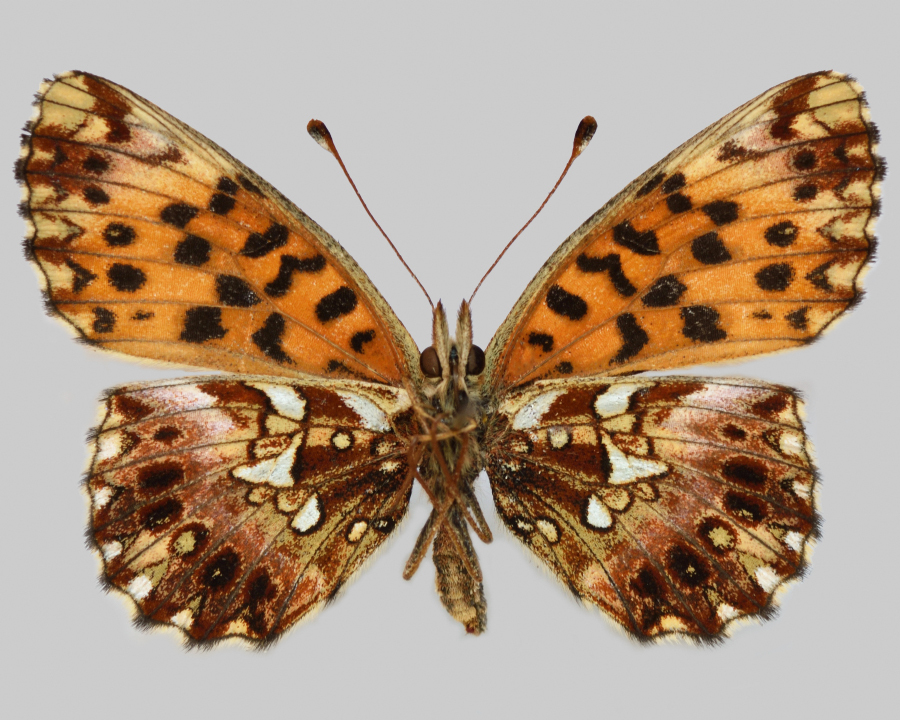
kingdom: Animalia
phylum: Arthropoda
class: Insecta
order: Lepidoptera
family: Nymphalidae
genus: Boloria
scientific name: Boloria dia
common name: Weaver's fritillary
